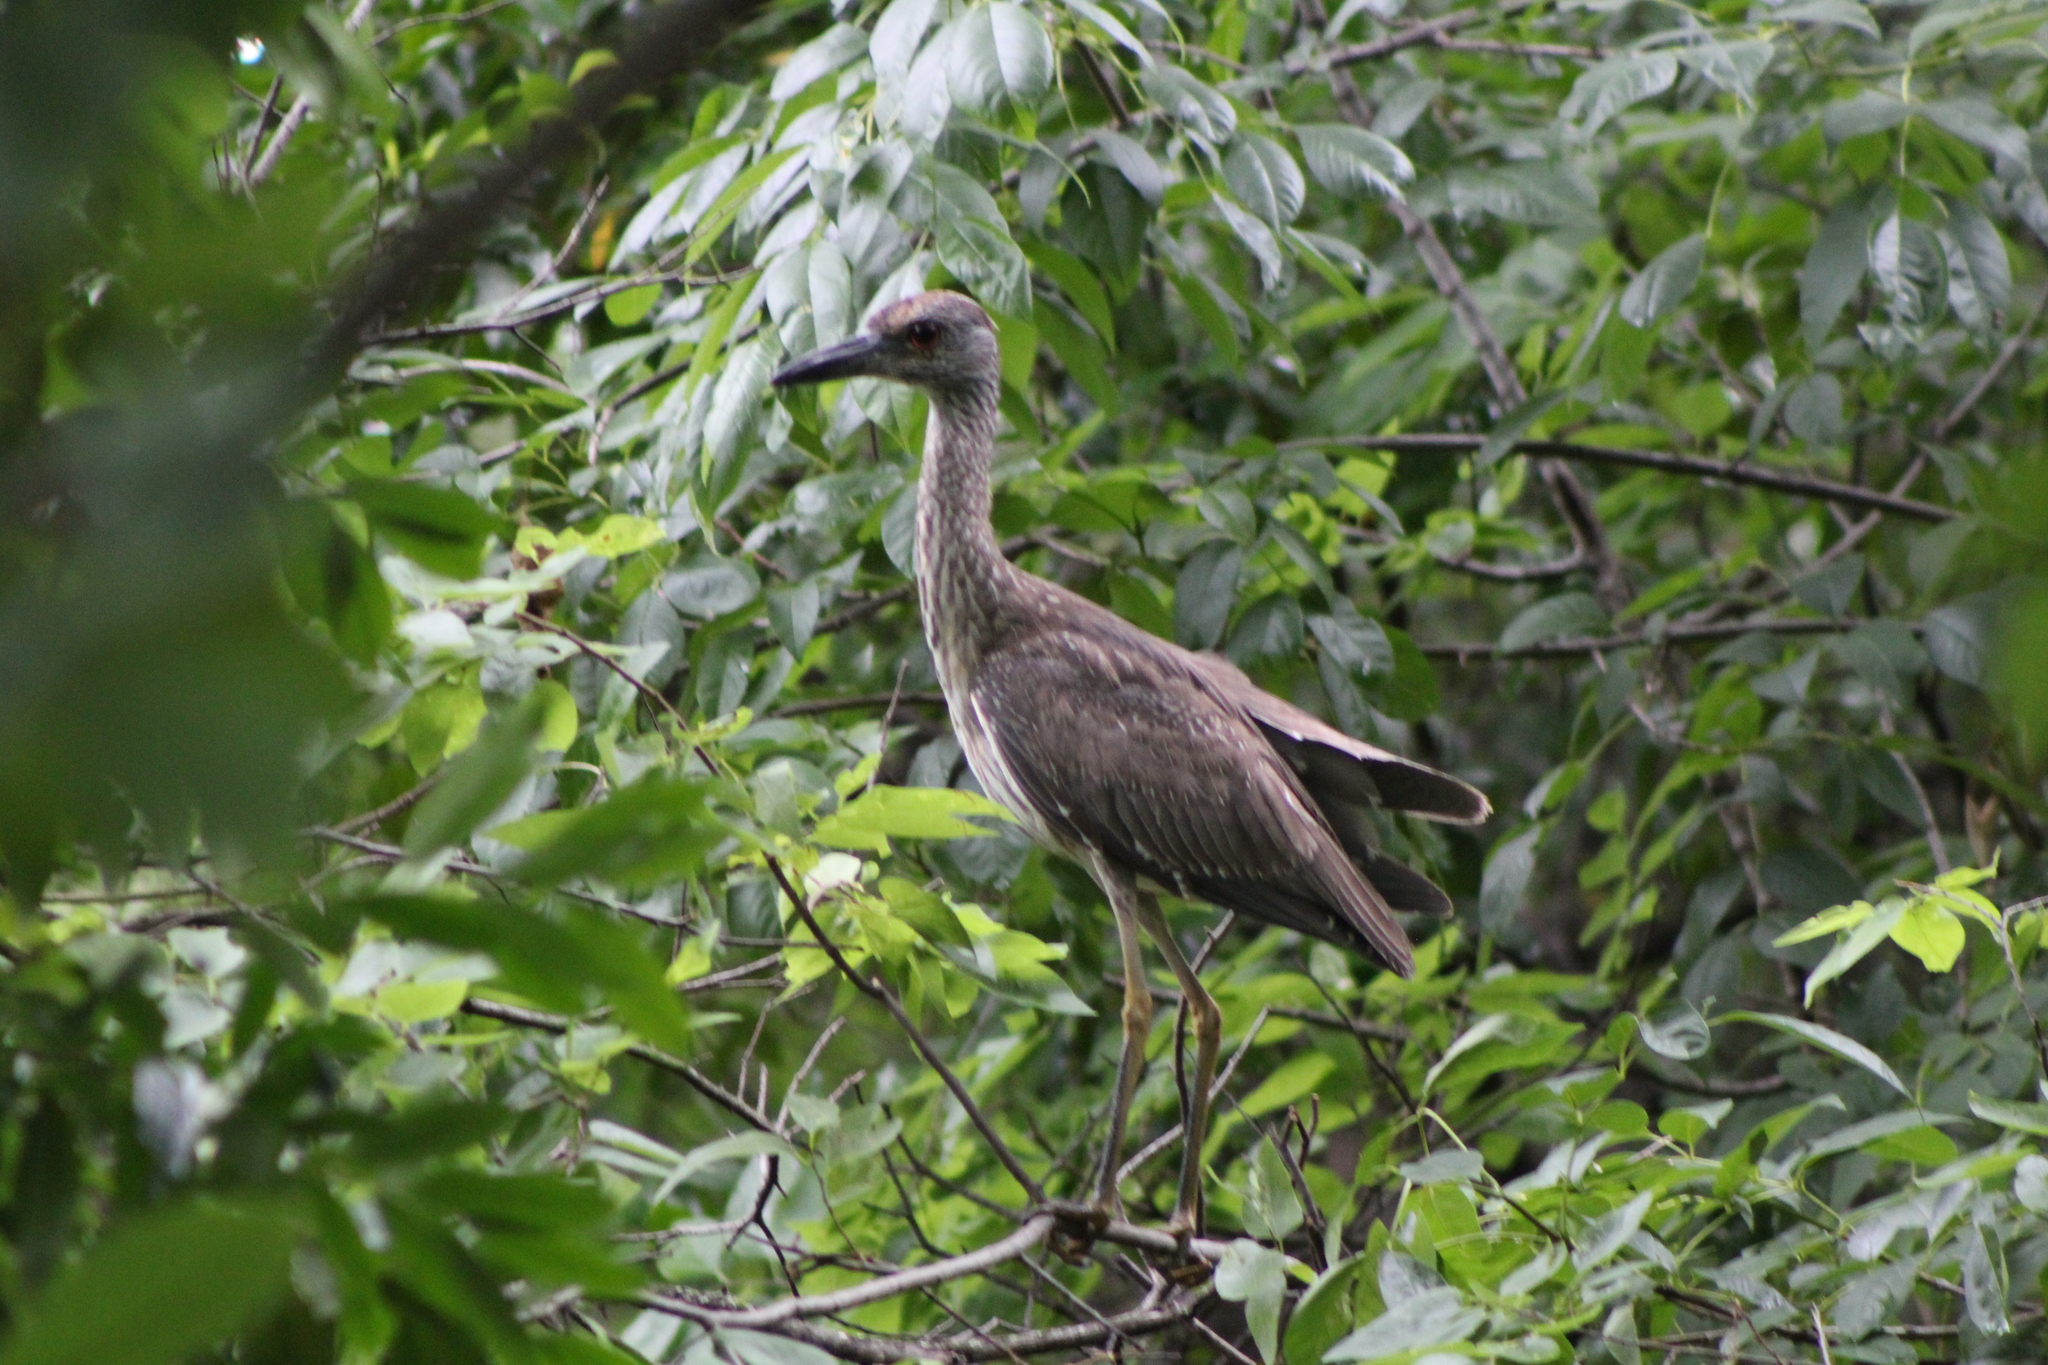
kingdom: Animalia
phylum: Chordata
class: Aves
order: Pelecaniformes
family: Ardeidae
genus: Nyctanassa
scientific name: Nyctanassa violacea
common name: Yellow-crowned night heron
